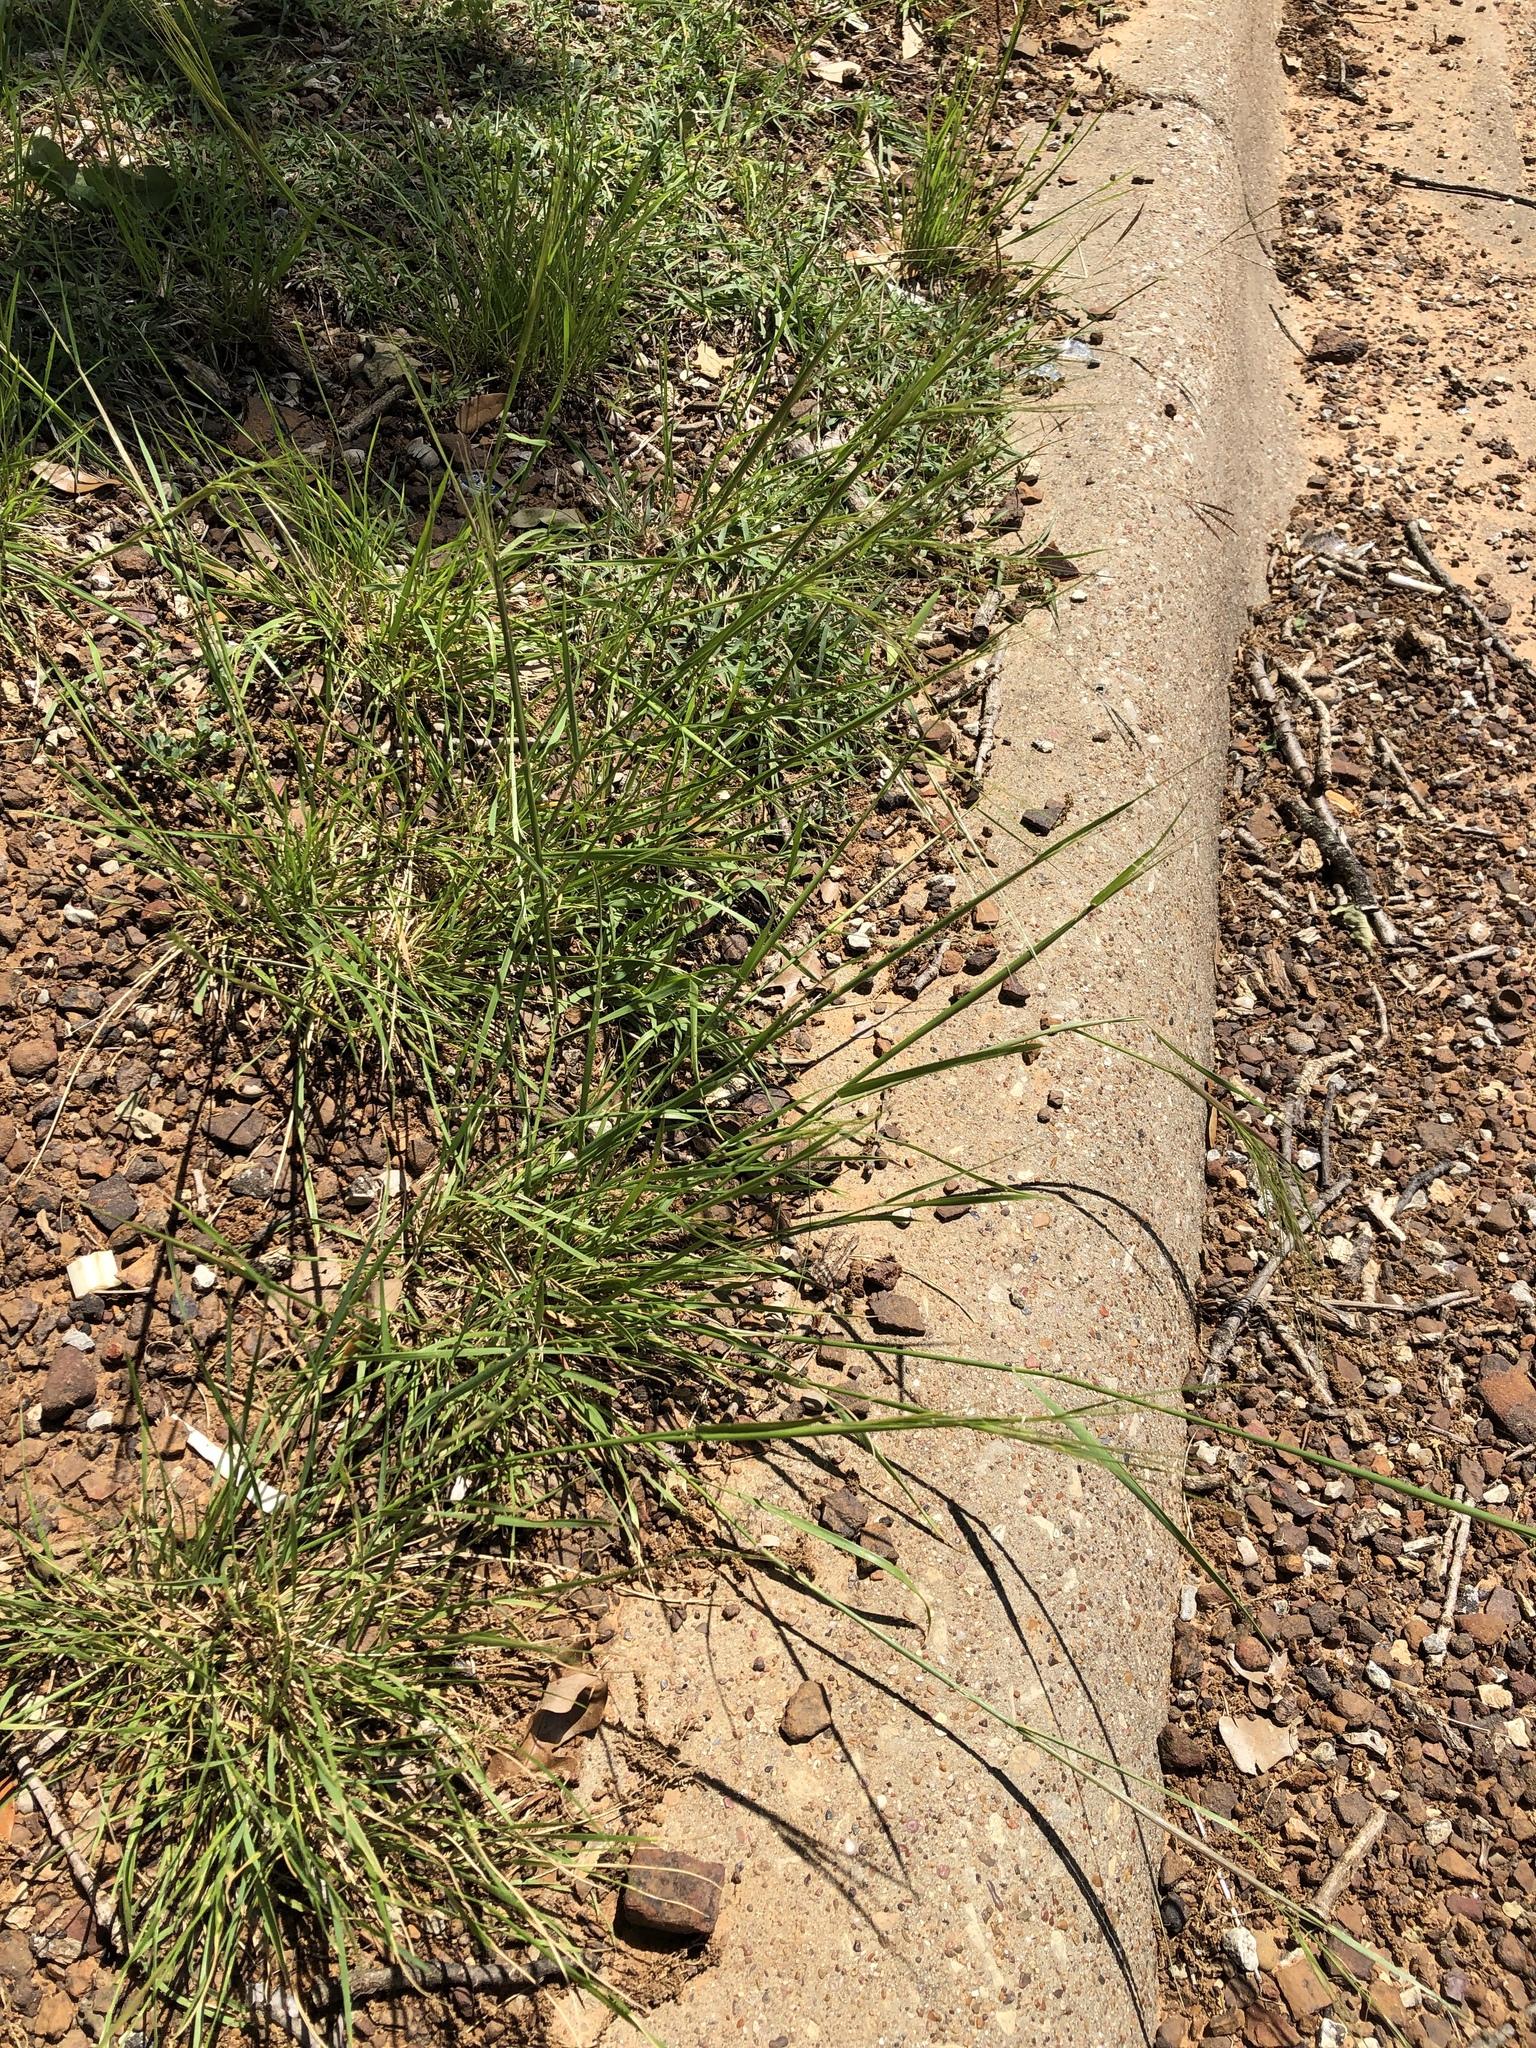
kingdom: Plantae
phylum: Tracheophyta
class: Liliopsida
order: Poales
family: Poaceae
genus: Nassella
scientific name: Nassella leucotricha
